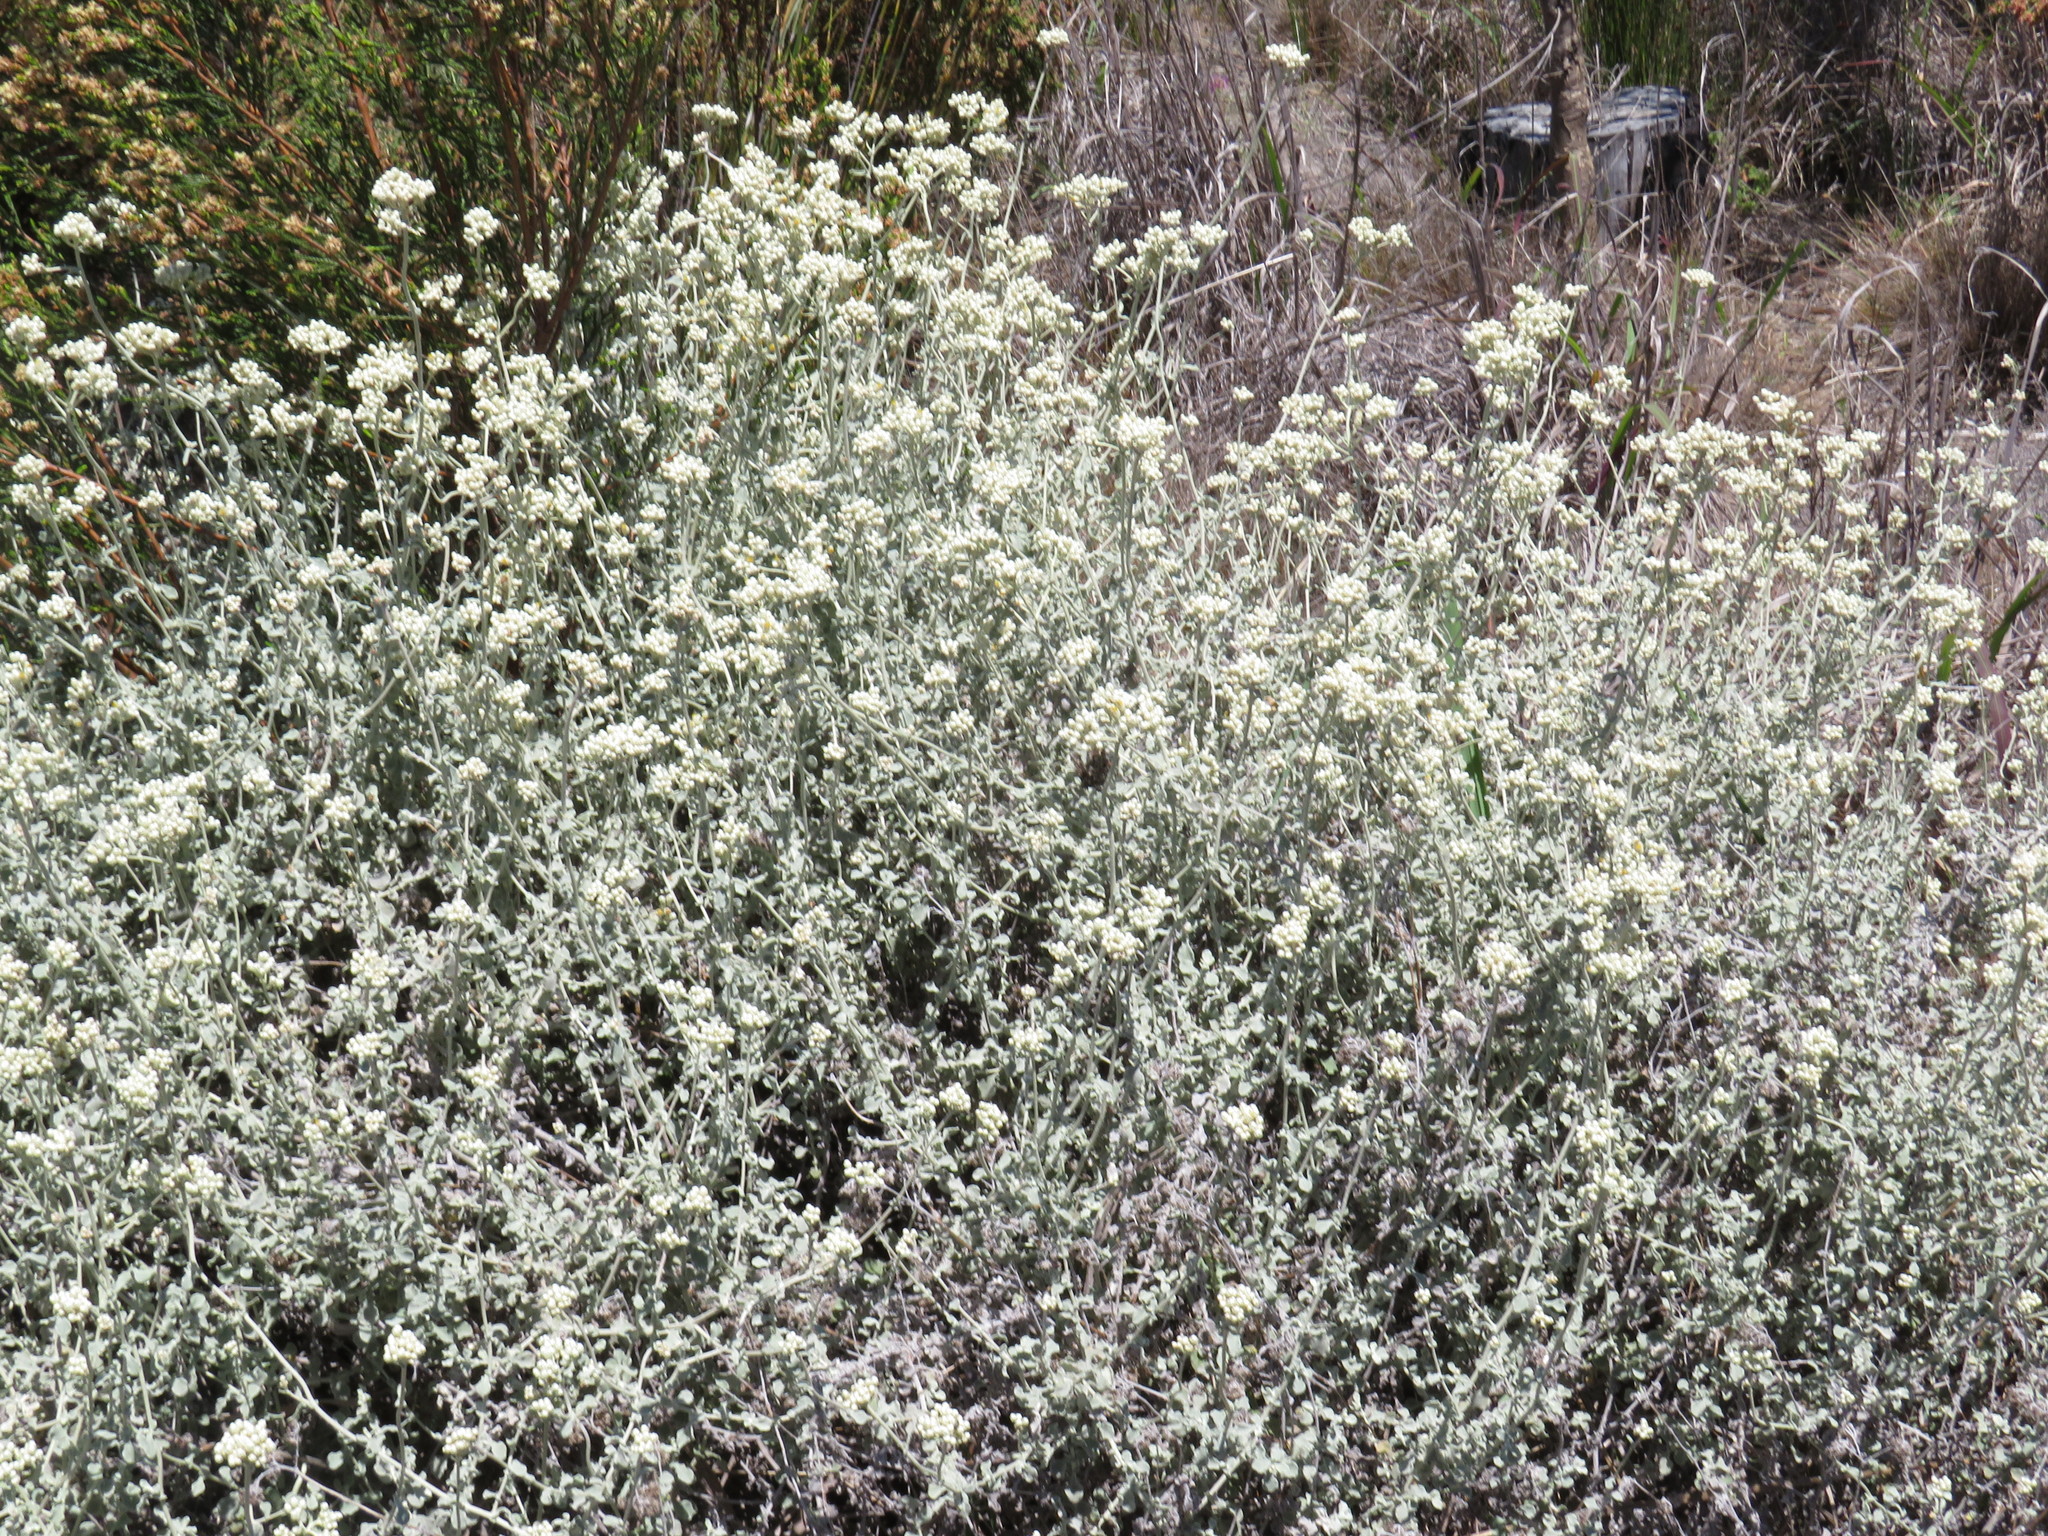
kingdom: Plantae
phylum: Tracheophyta
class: Magnoliopsida
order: Asterales
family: Asteraceae
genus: Helichrysum
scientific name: Helichrysum patulum
